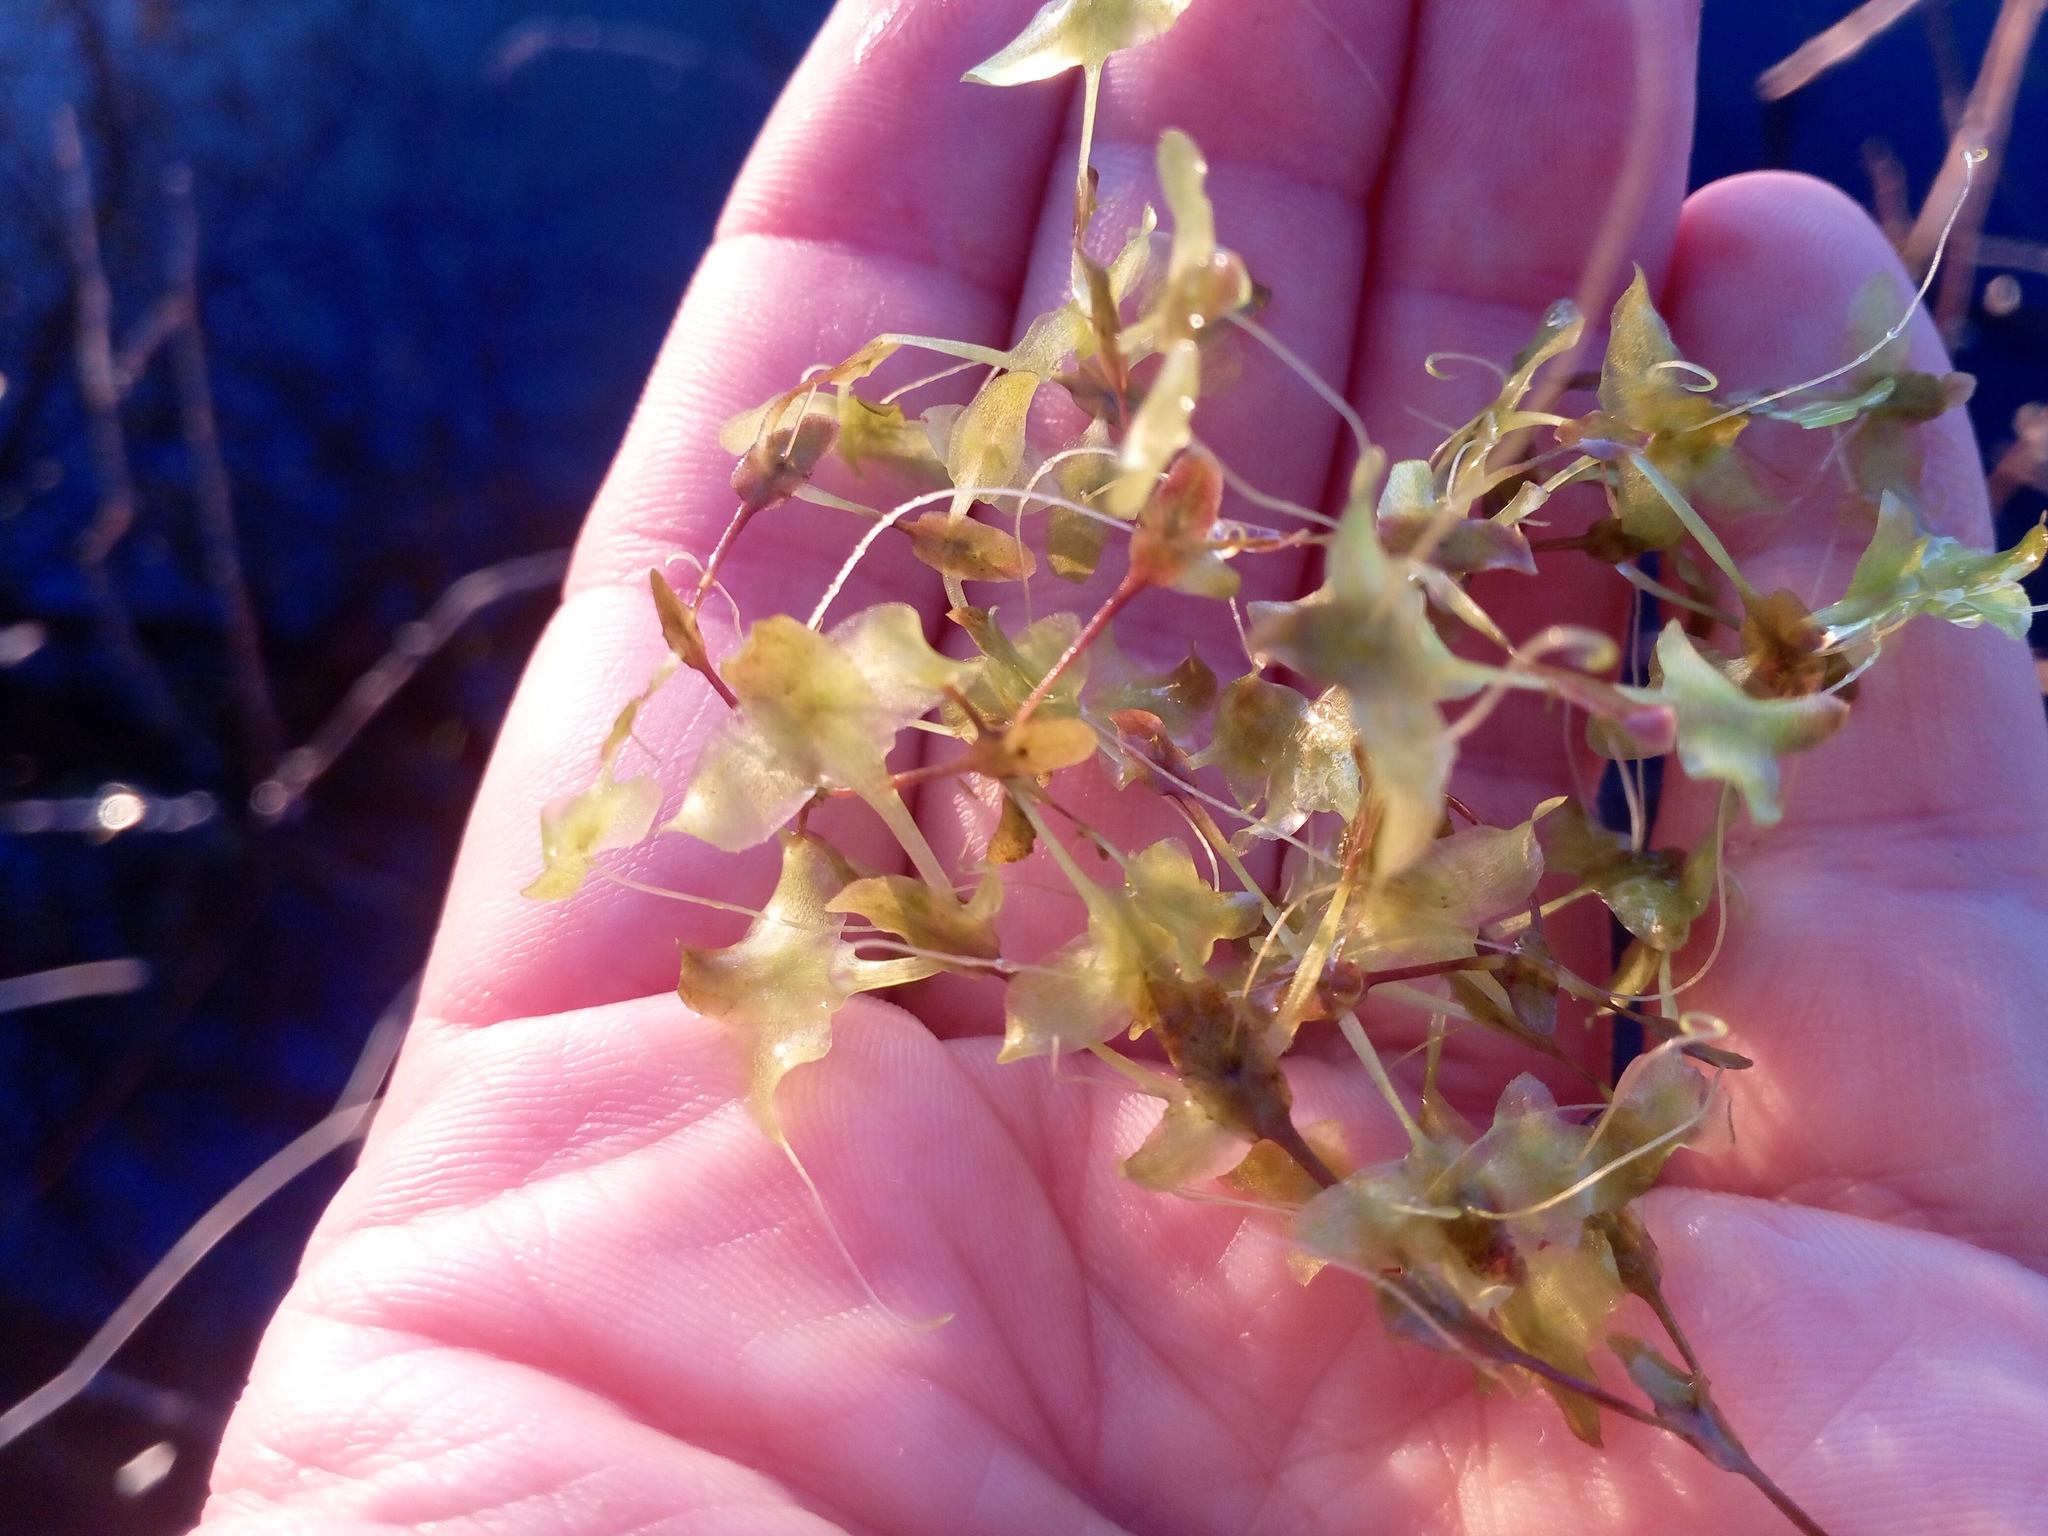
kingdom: Plantae
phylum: Tracheophyta
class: Liliopsida
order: Alismatales
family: Araceae
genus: Lemna
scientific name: Lemna trisulca
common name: Ivy-leaved duckweed
